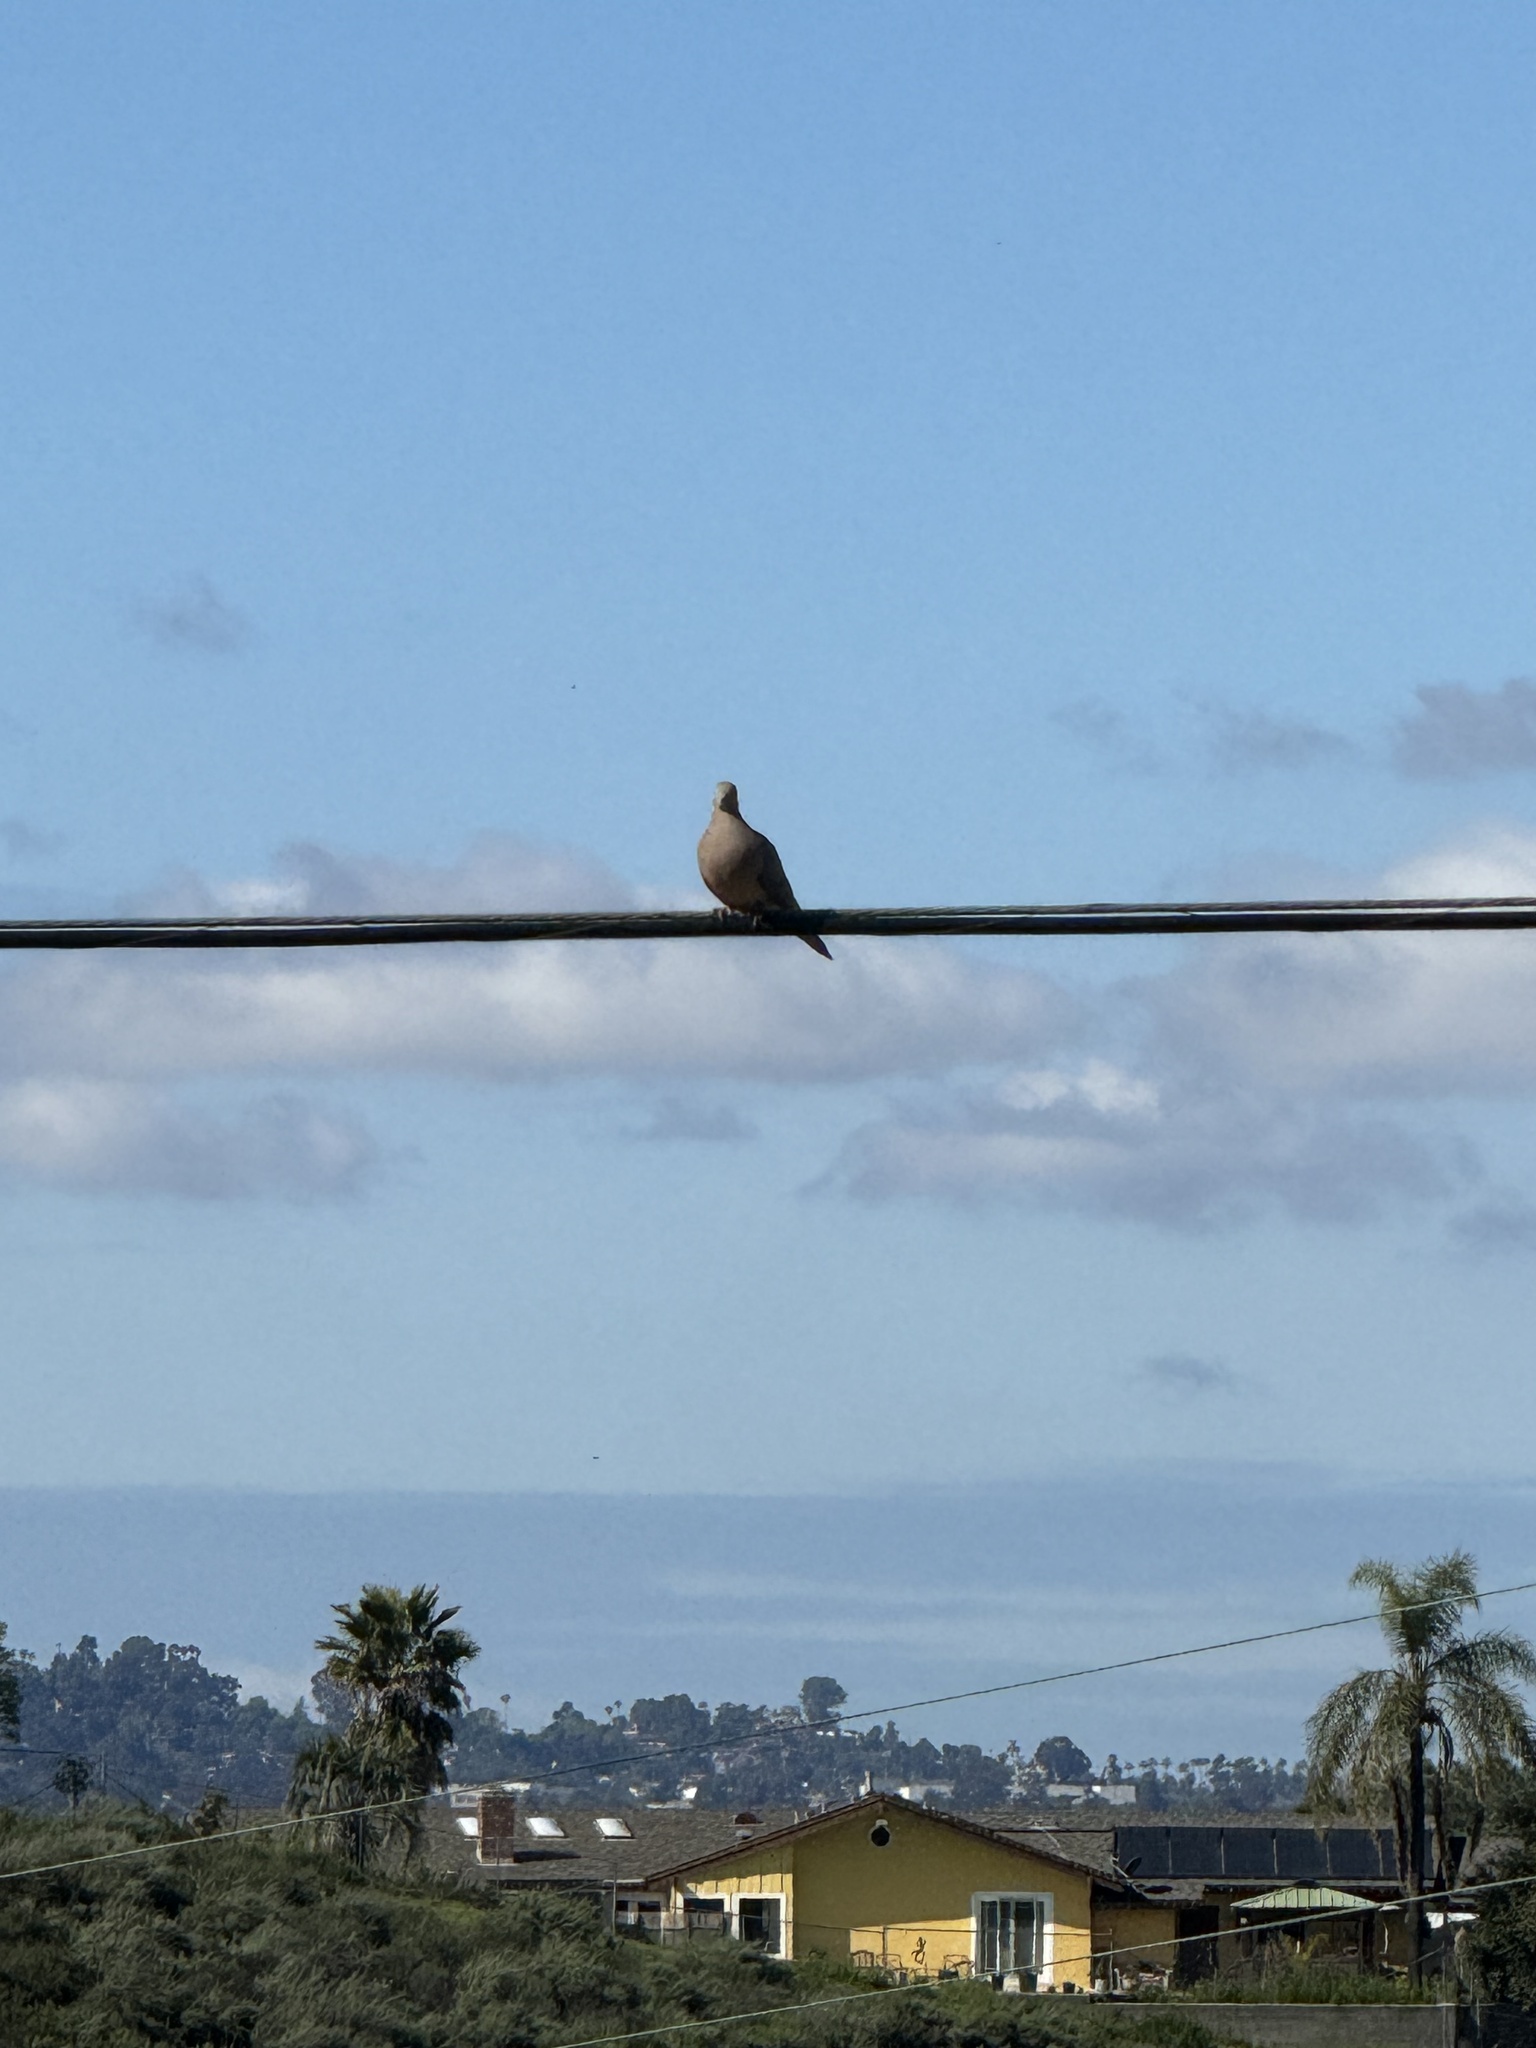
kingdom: Animalia
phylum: Chordata
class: Aves
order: Columbiformes
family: Columbidae
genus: Zenaida
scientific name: Zenaida macroura
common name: Mourning dove
